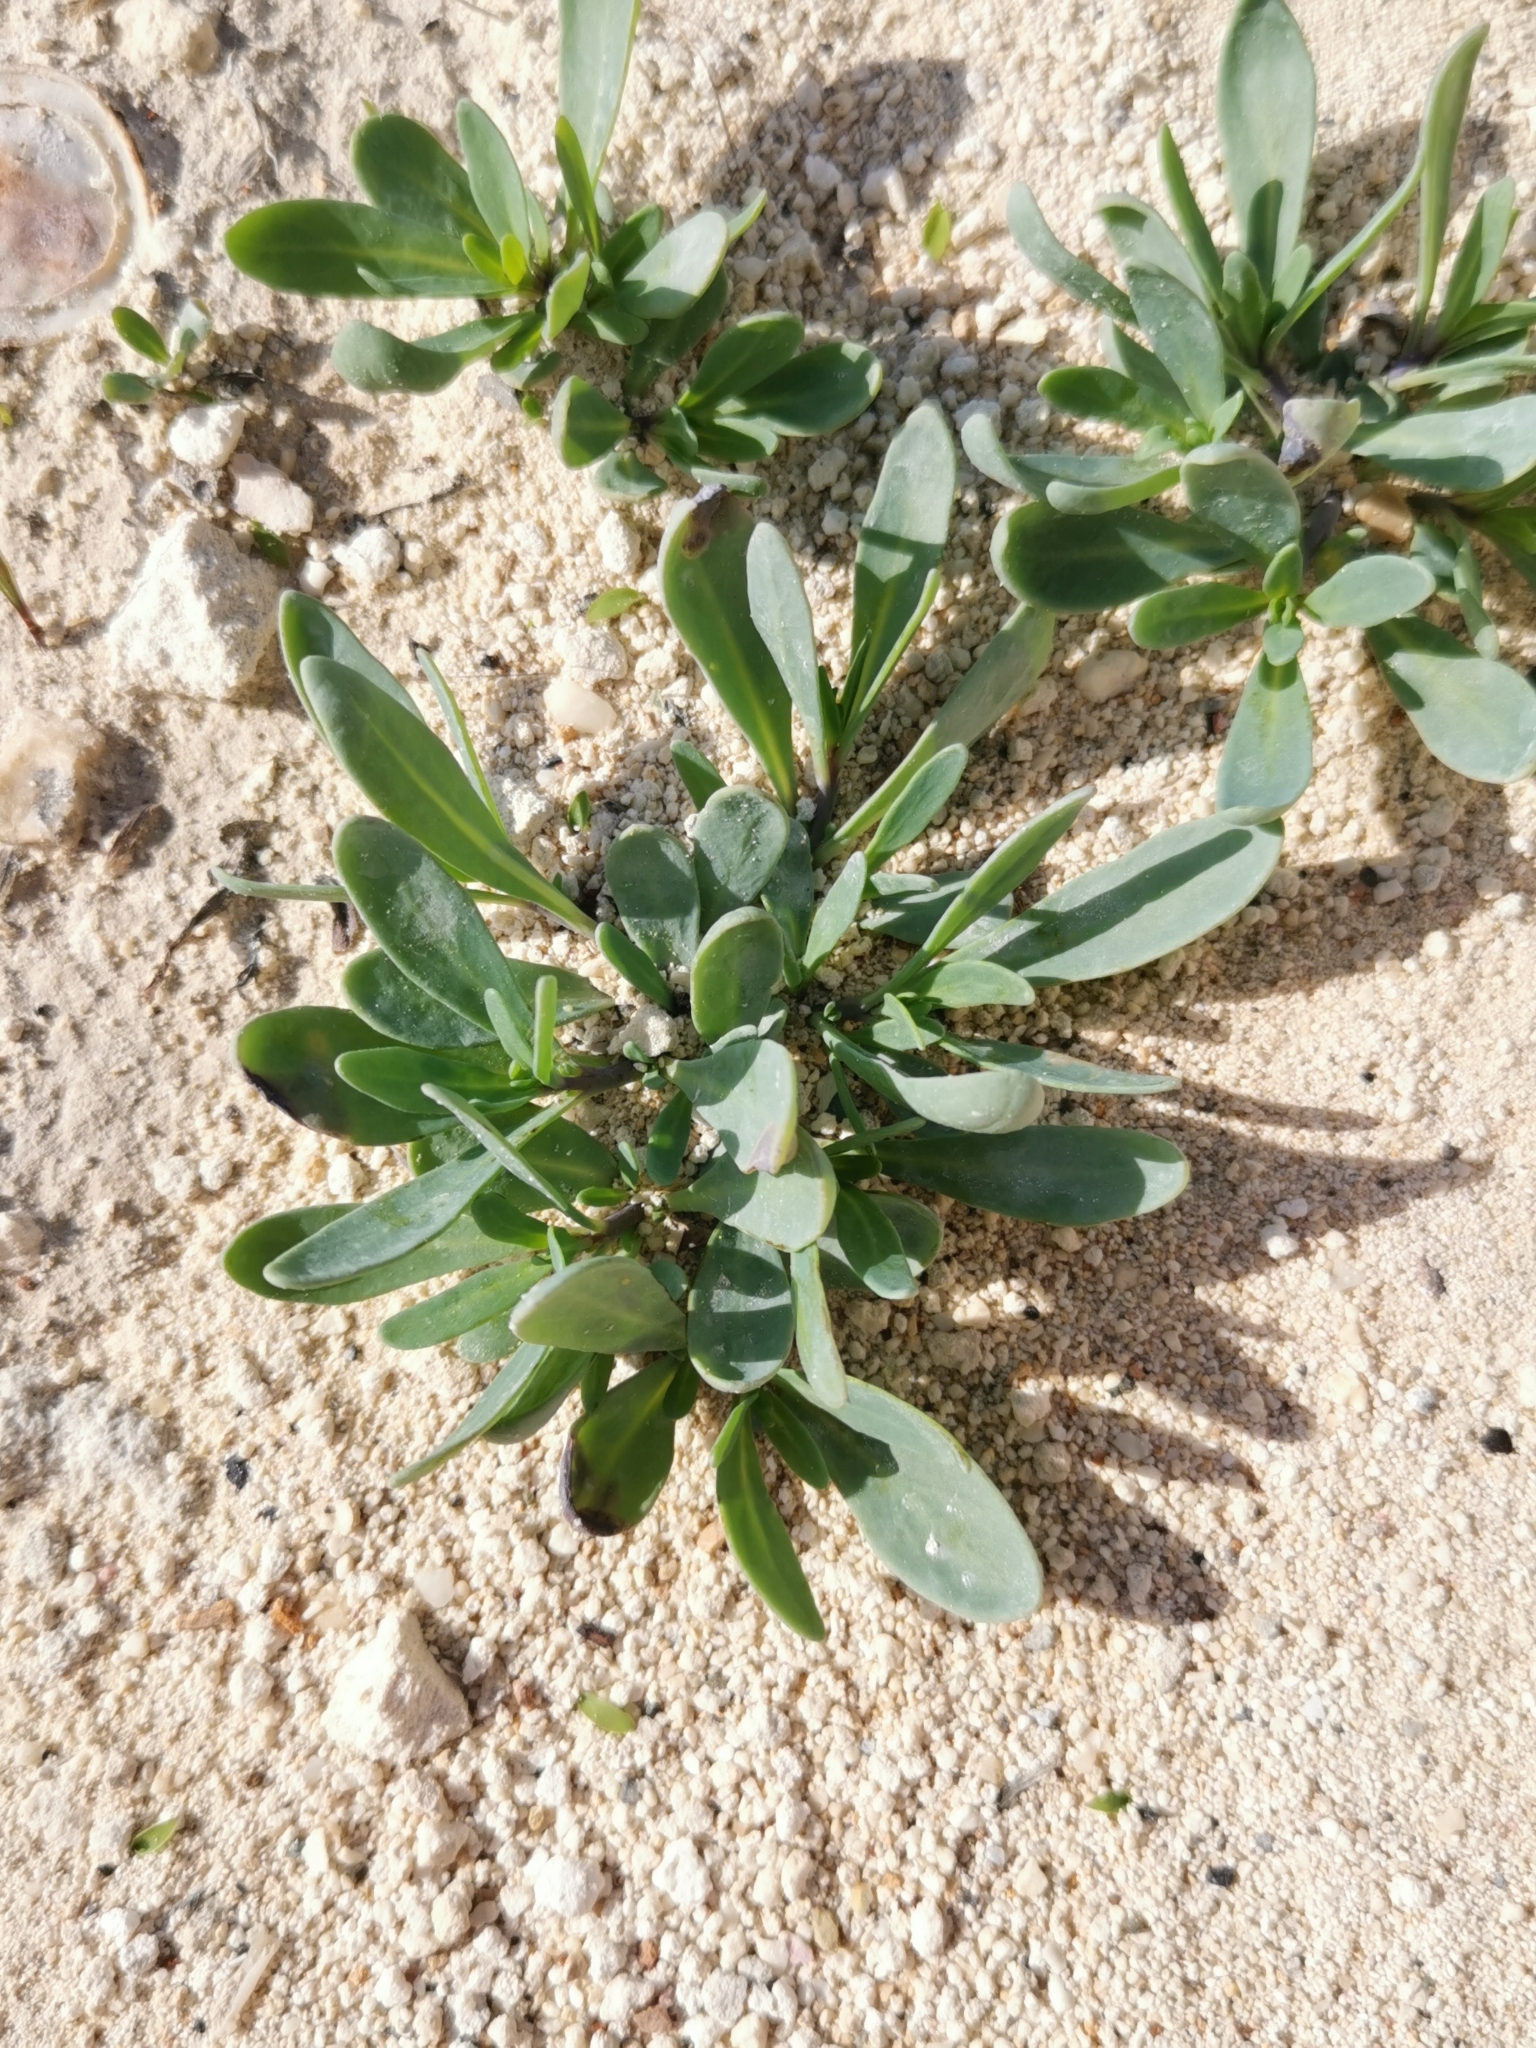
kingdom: Plantae
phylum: Tracheophyta
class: Magnoliopsida
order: Boraginales
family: Heliotropiaceae
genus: Heliotropium
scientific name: Heliotropium curassavicum
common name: Seaside heliotrope
